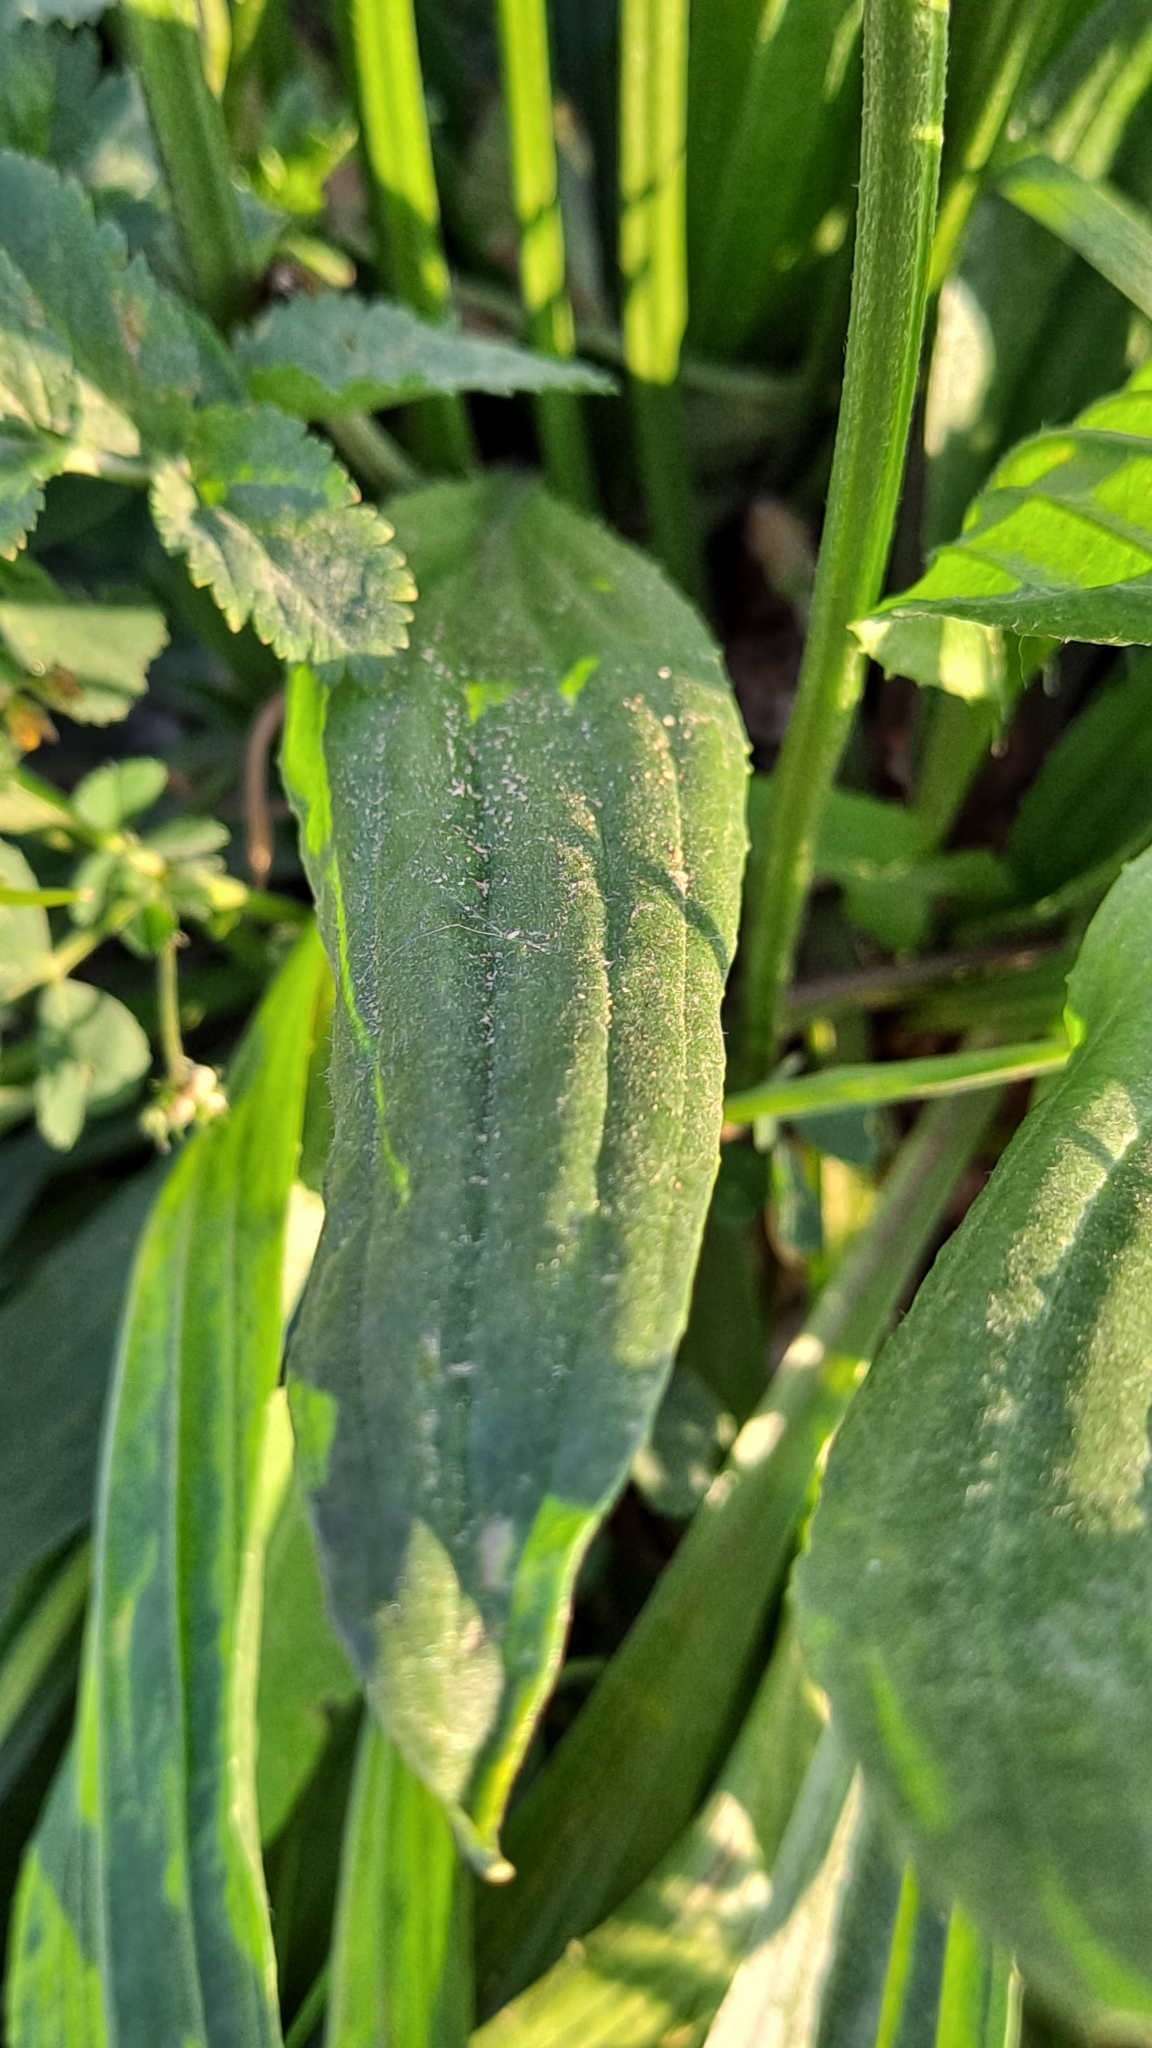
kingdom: Plantae
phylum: Tracheophyta
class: Magnoliopsida
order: Lamiales
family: Plantaginaceae
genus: Plantago
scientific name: Plantago lanceolata
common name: Ribwort plantain
